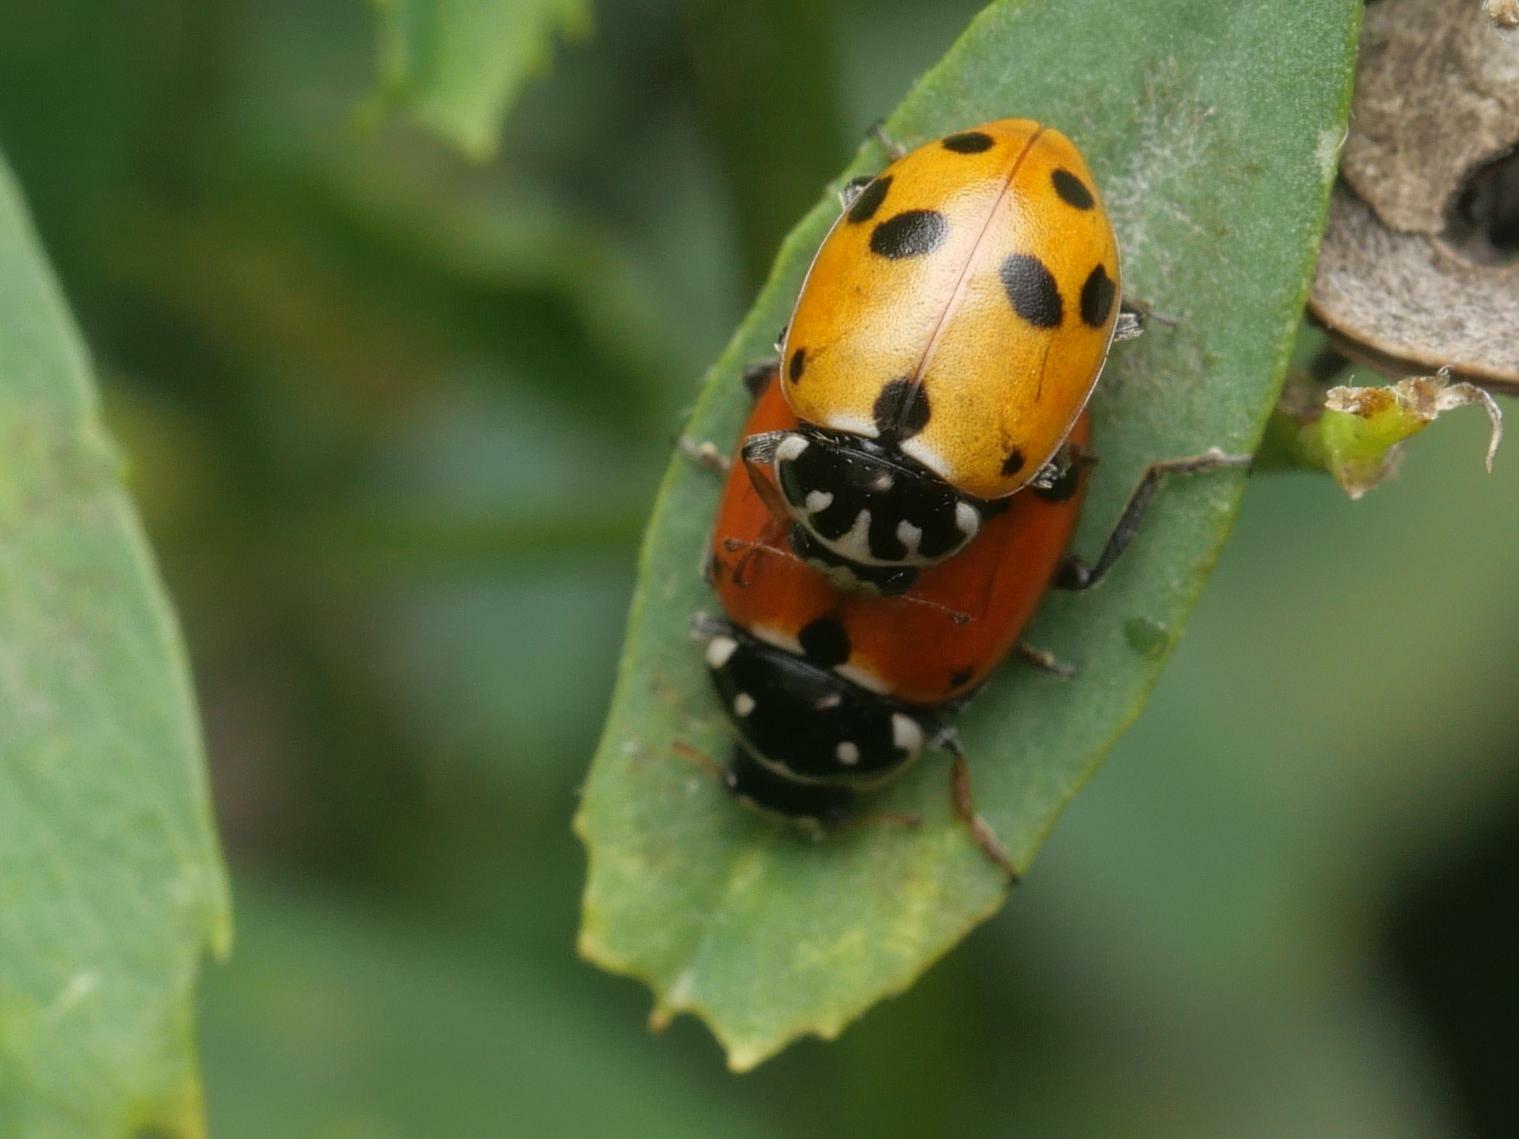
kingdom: Animalia
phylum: Arthropoda
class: Insecta
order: Coleoptera
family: Coccinellidae
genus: Hippodamia
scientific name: Hippodamia variegata
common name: Ladybird beetle
